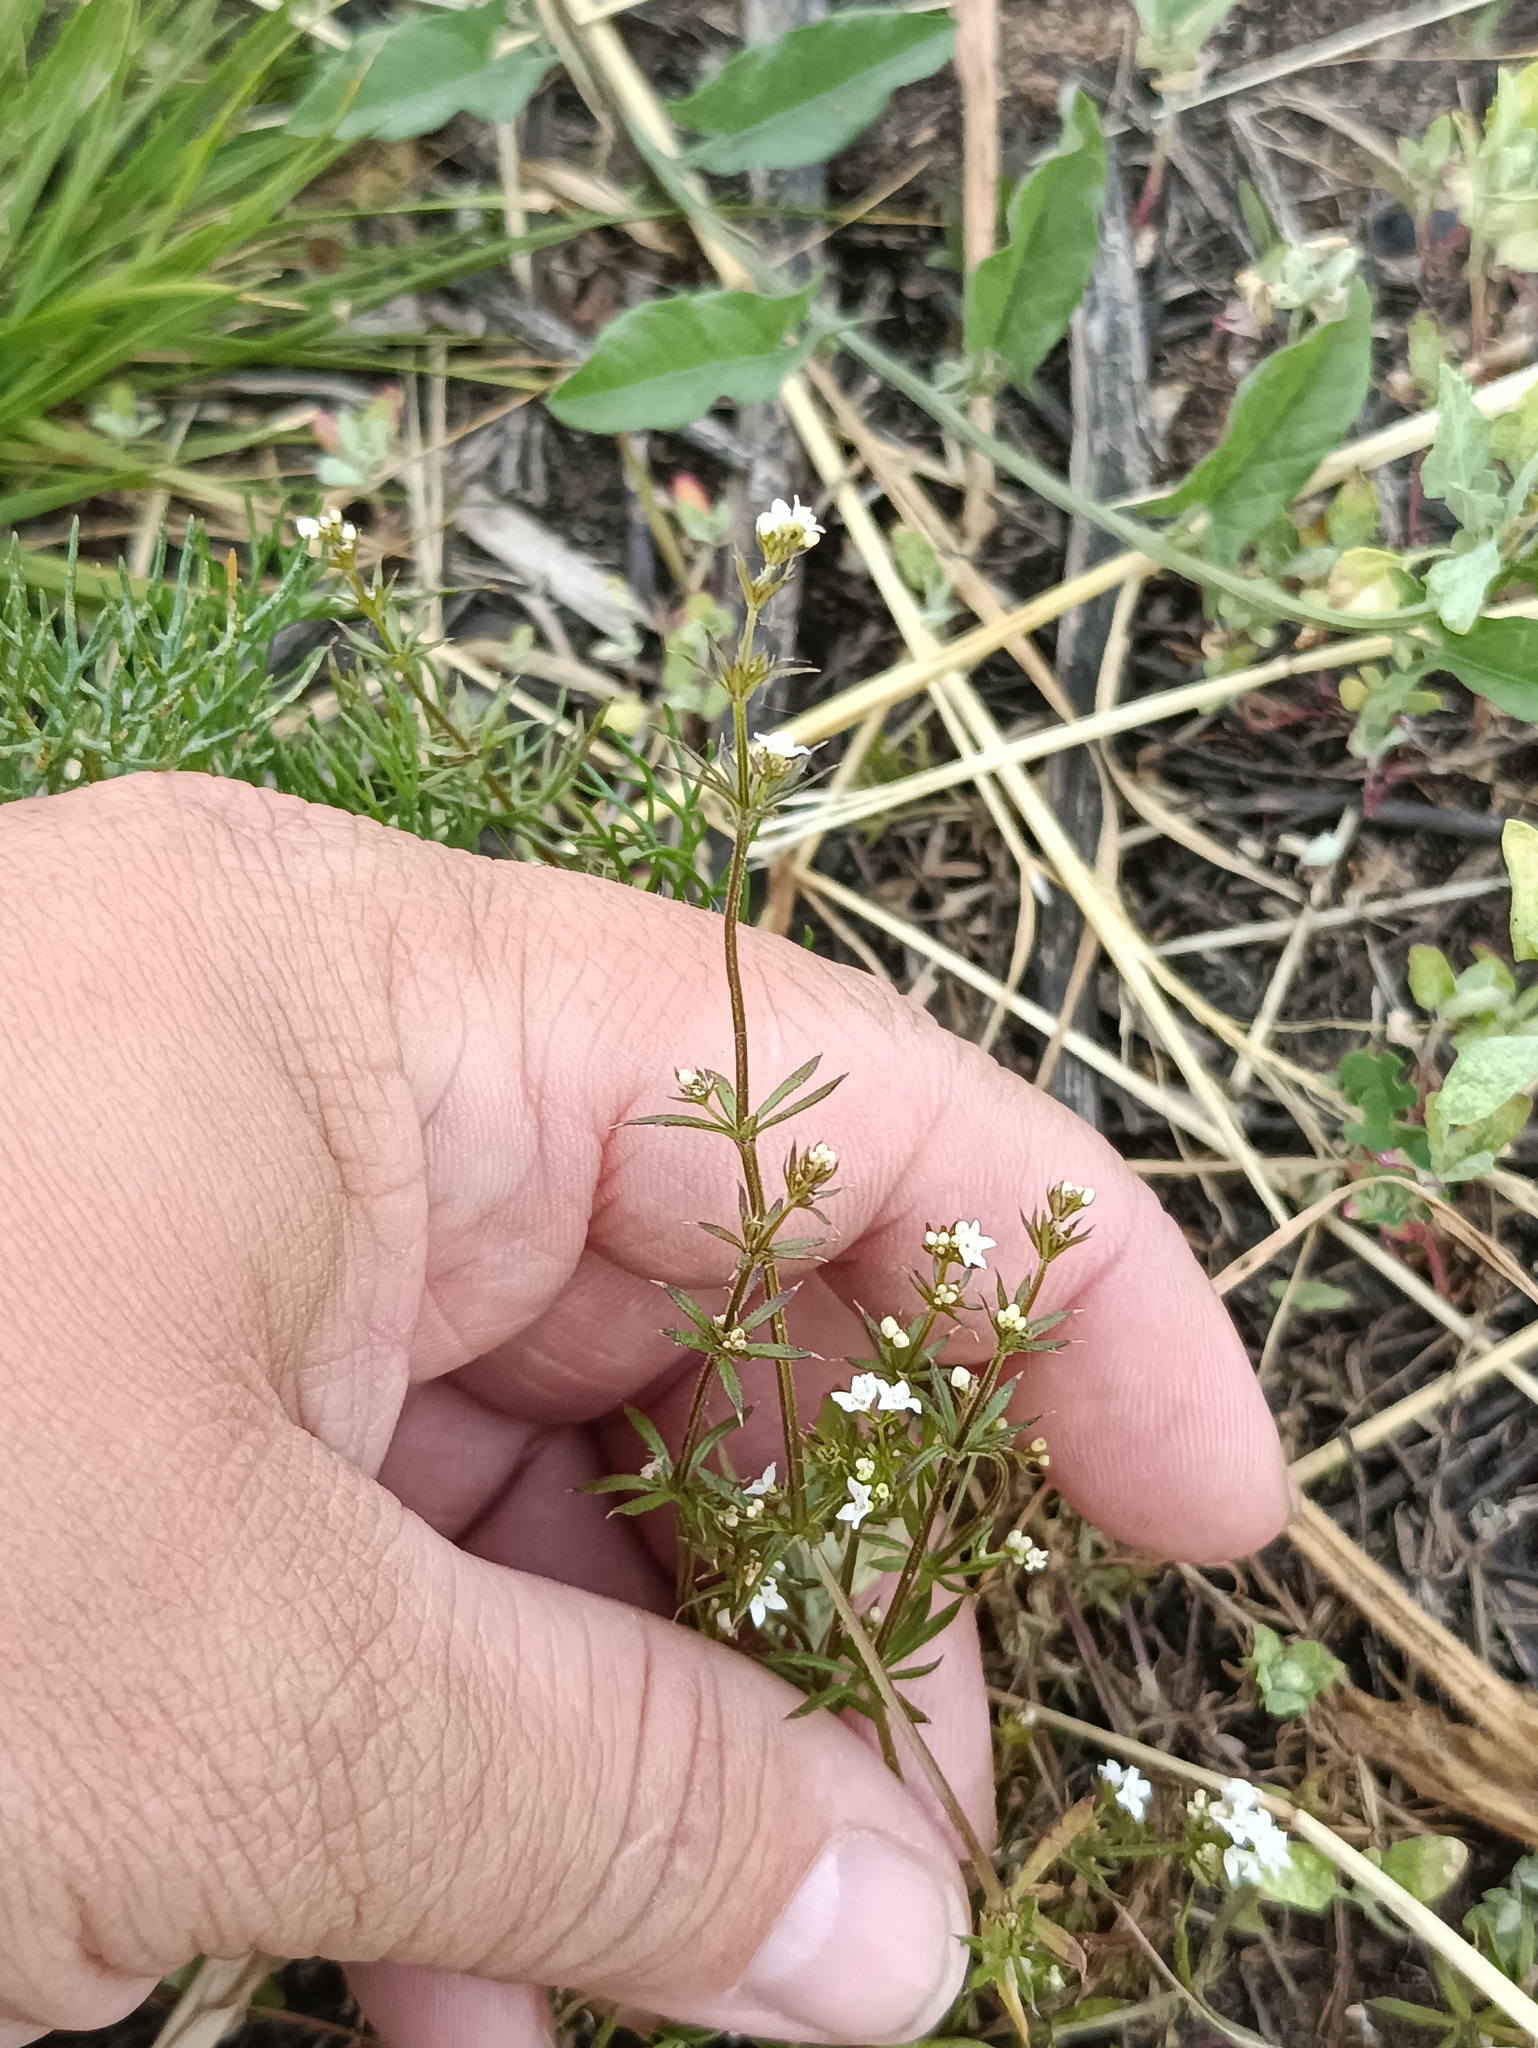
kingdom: Plantae
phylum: Tracheophyta
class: Magnoliopsida
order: Gentianales
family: Rubiaceae
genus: Galium
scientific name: Galium uliginosum
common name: Fen bedstraw
